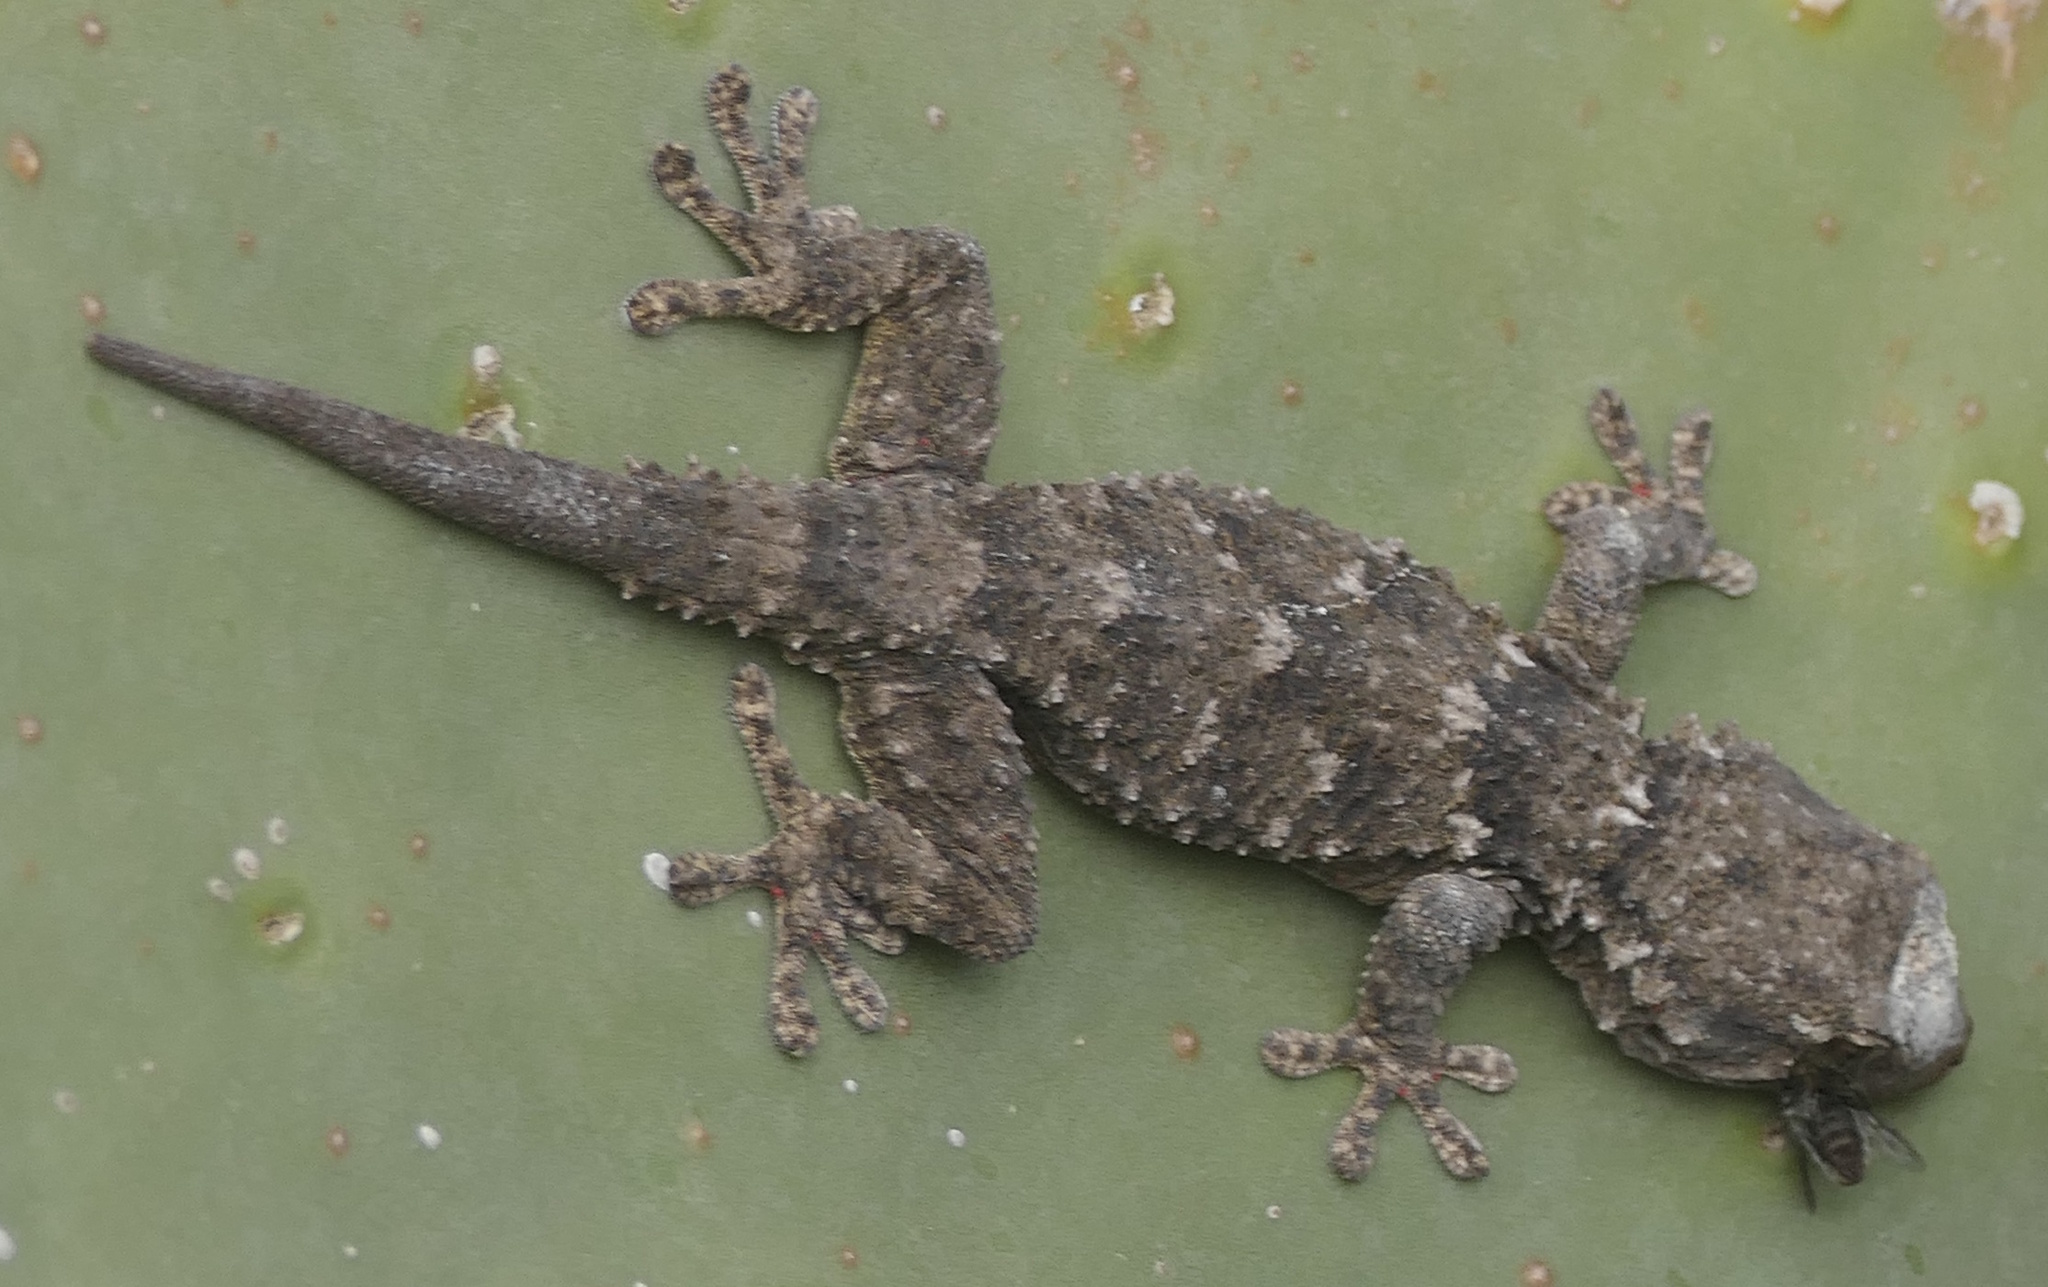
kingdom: Animalia
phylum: Chordata
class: Squamata
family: Phyllodactylidae
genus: Tarentola
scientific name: Tarentola mauritanica
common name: Moorish gecko
